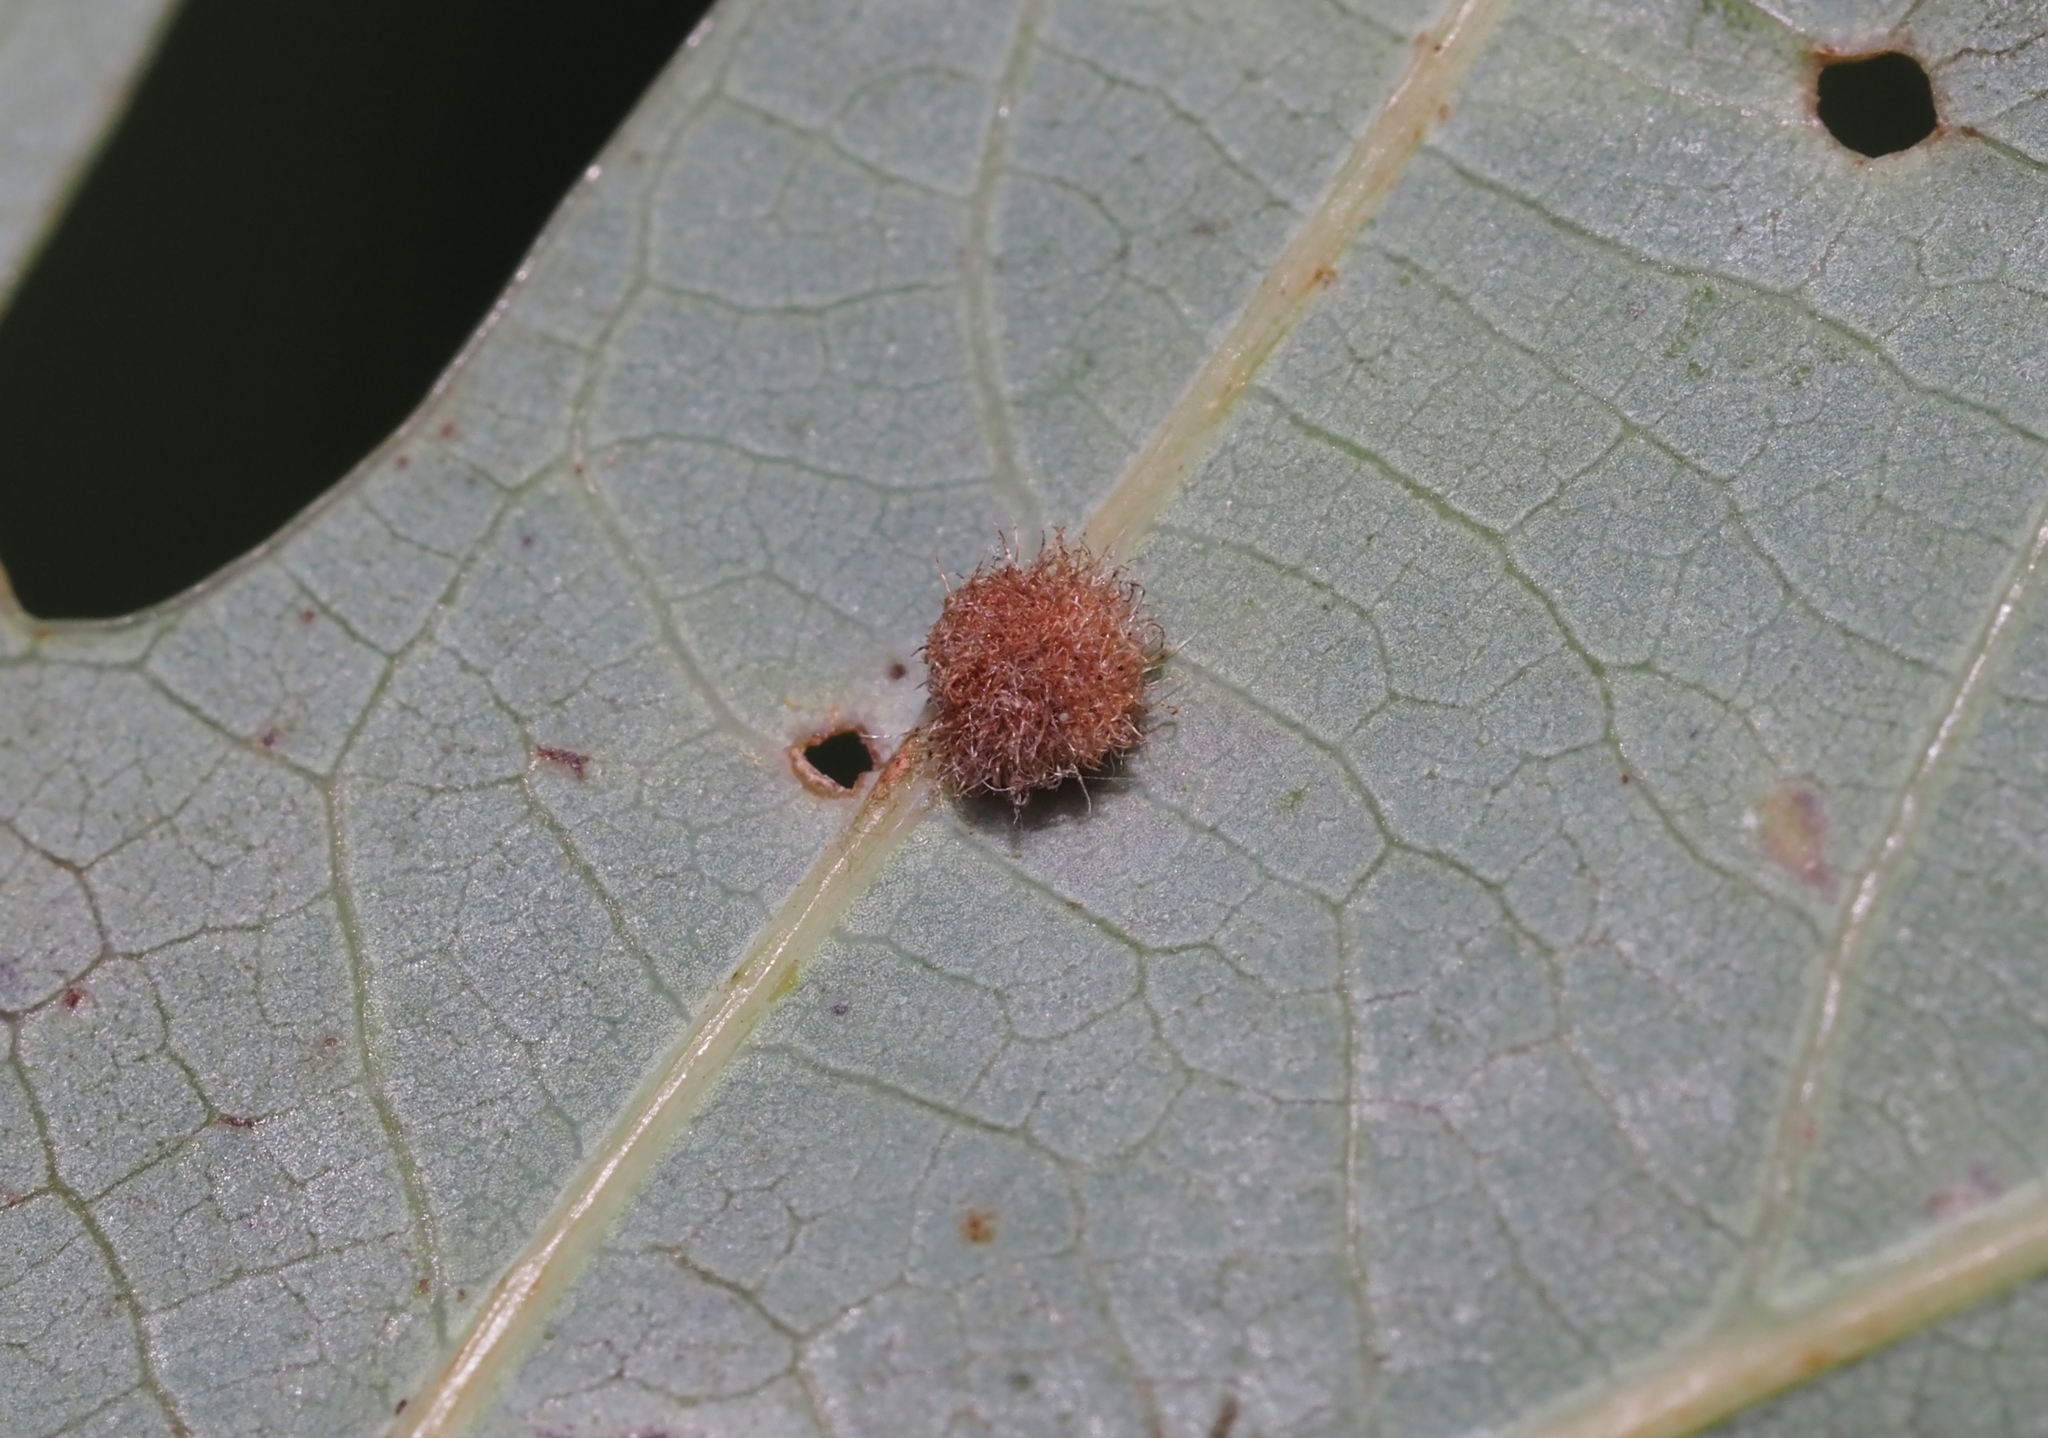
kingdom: Animalia
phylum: Arthropoda
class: Insecta
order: Hymenoptera
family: Cynipidae
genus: Philonix
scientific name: Philonix fulvicollis
